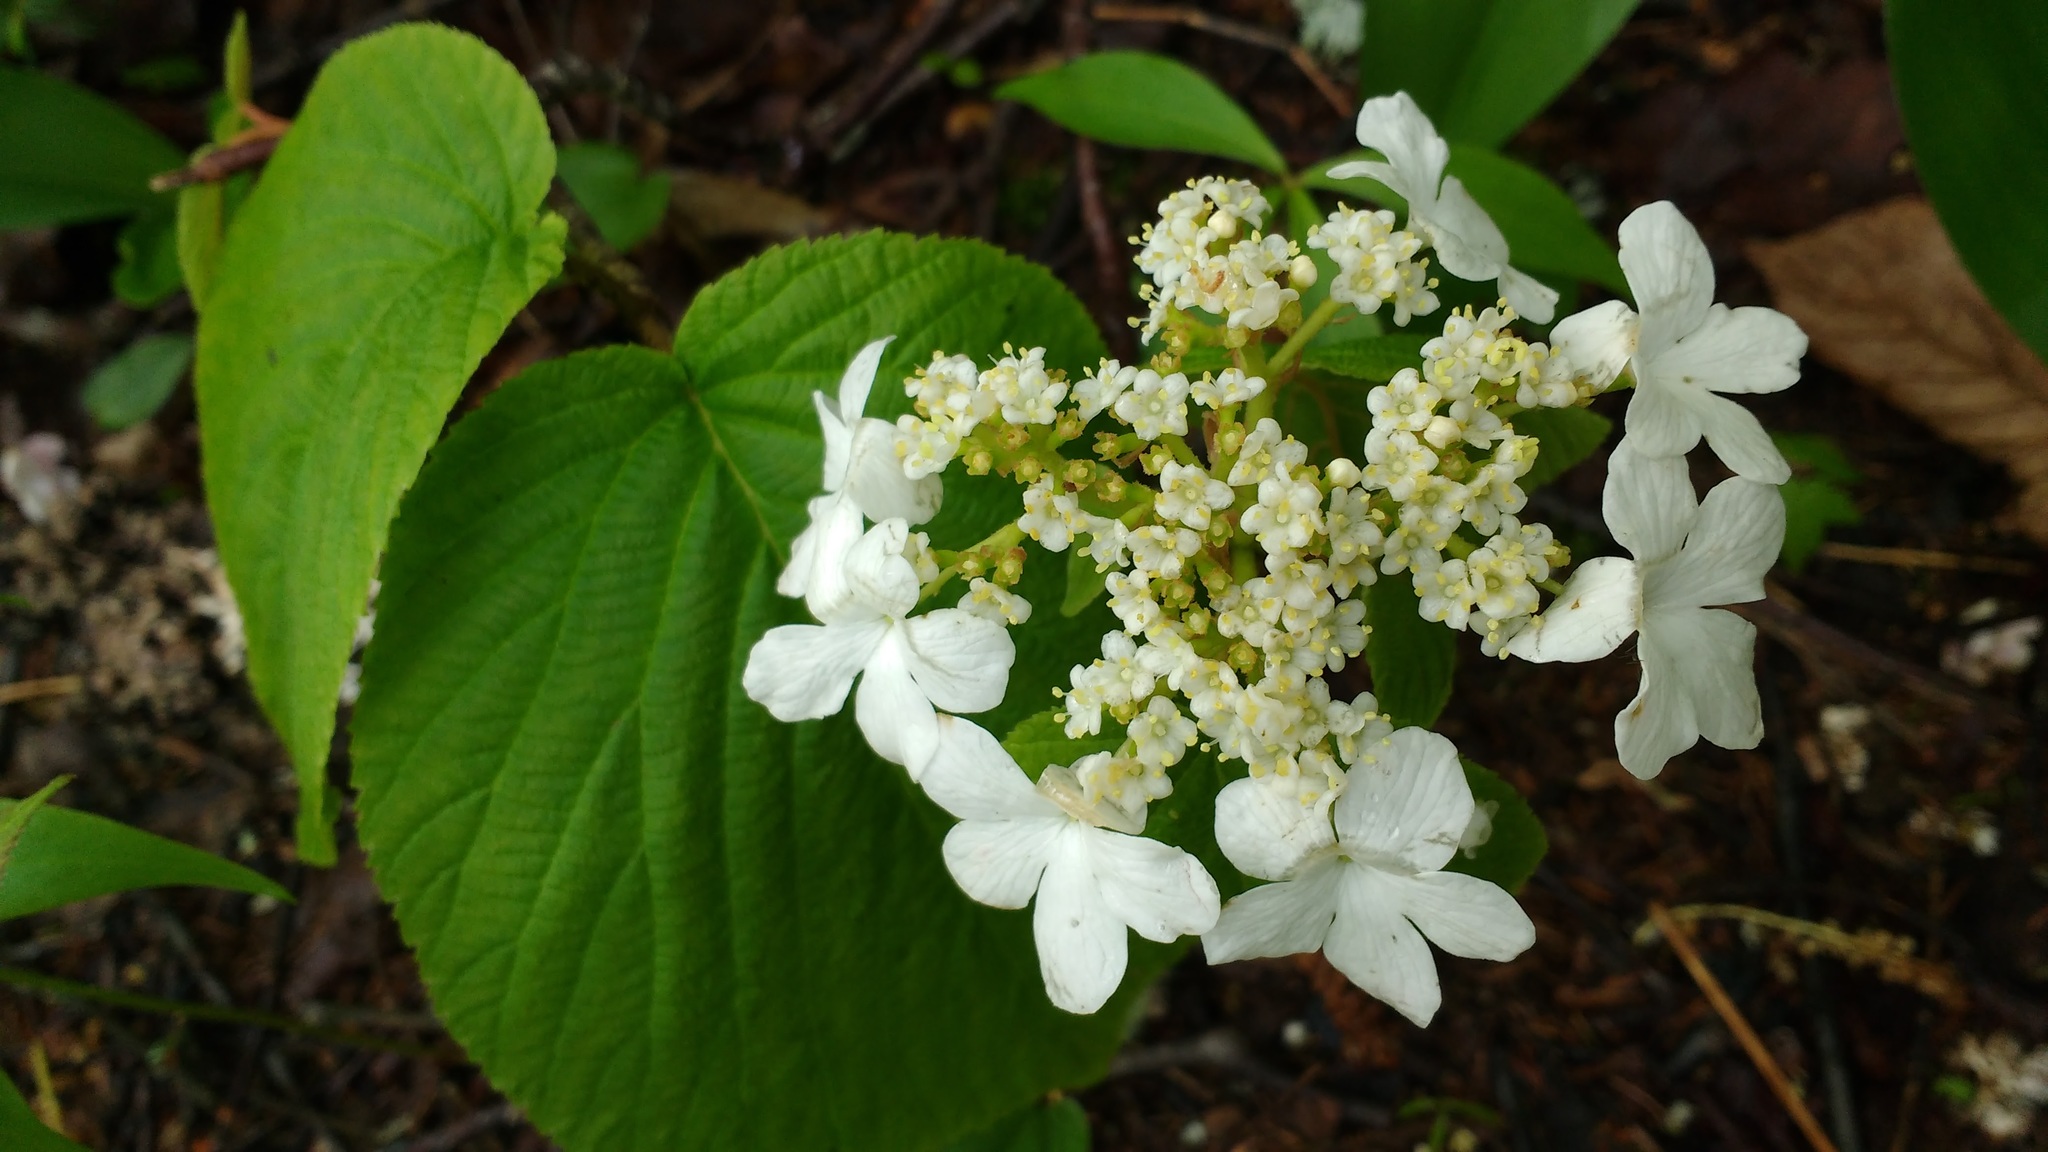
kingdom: Plantae
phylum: Tracheophyta
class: Magnoliopsida
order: Dipsacales
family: Viburnaceae
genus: Viburnum
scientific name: Viburnum lantanoides
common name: Hobblebush
